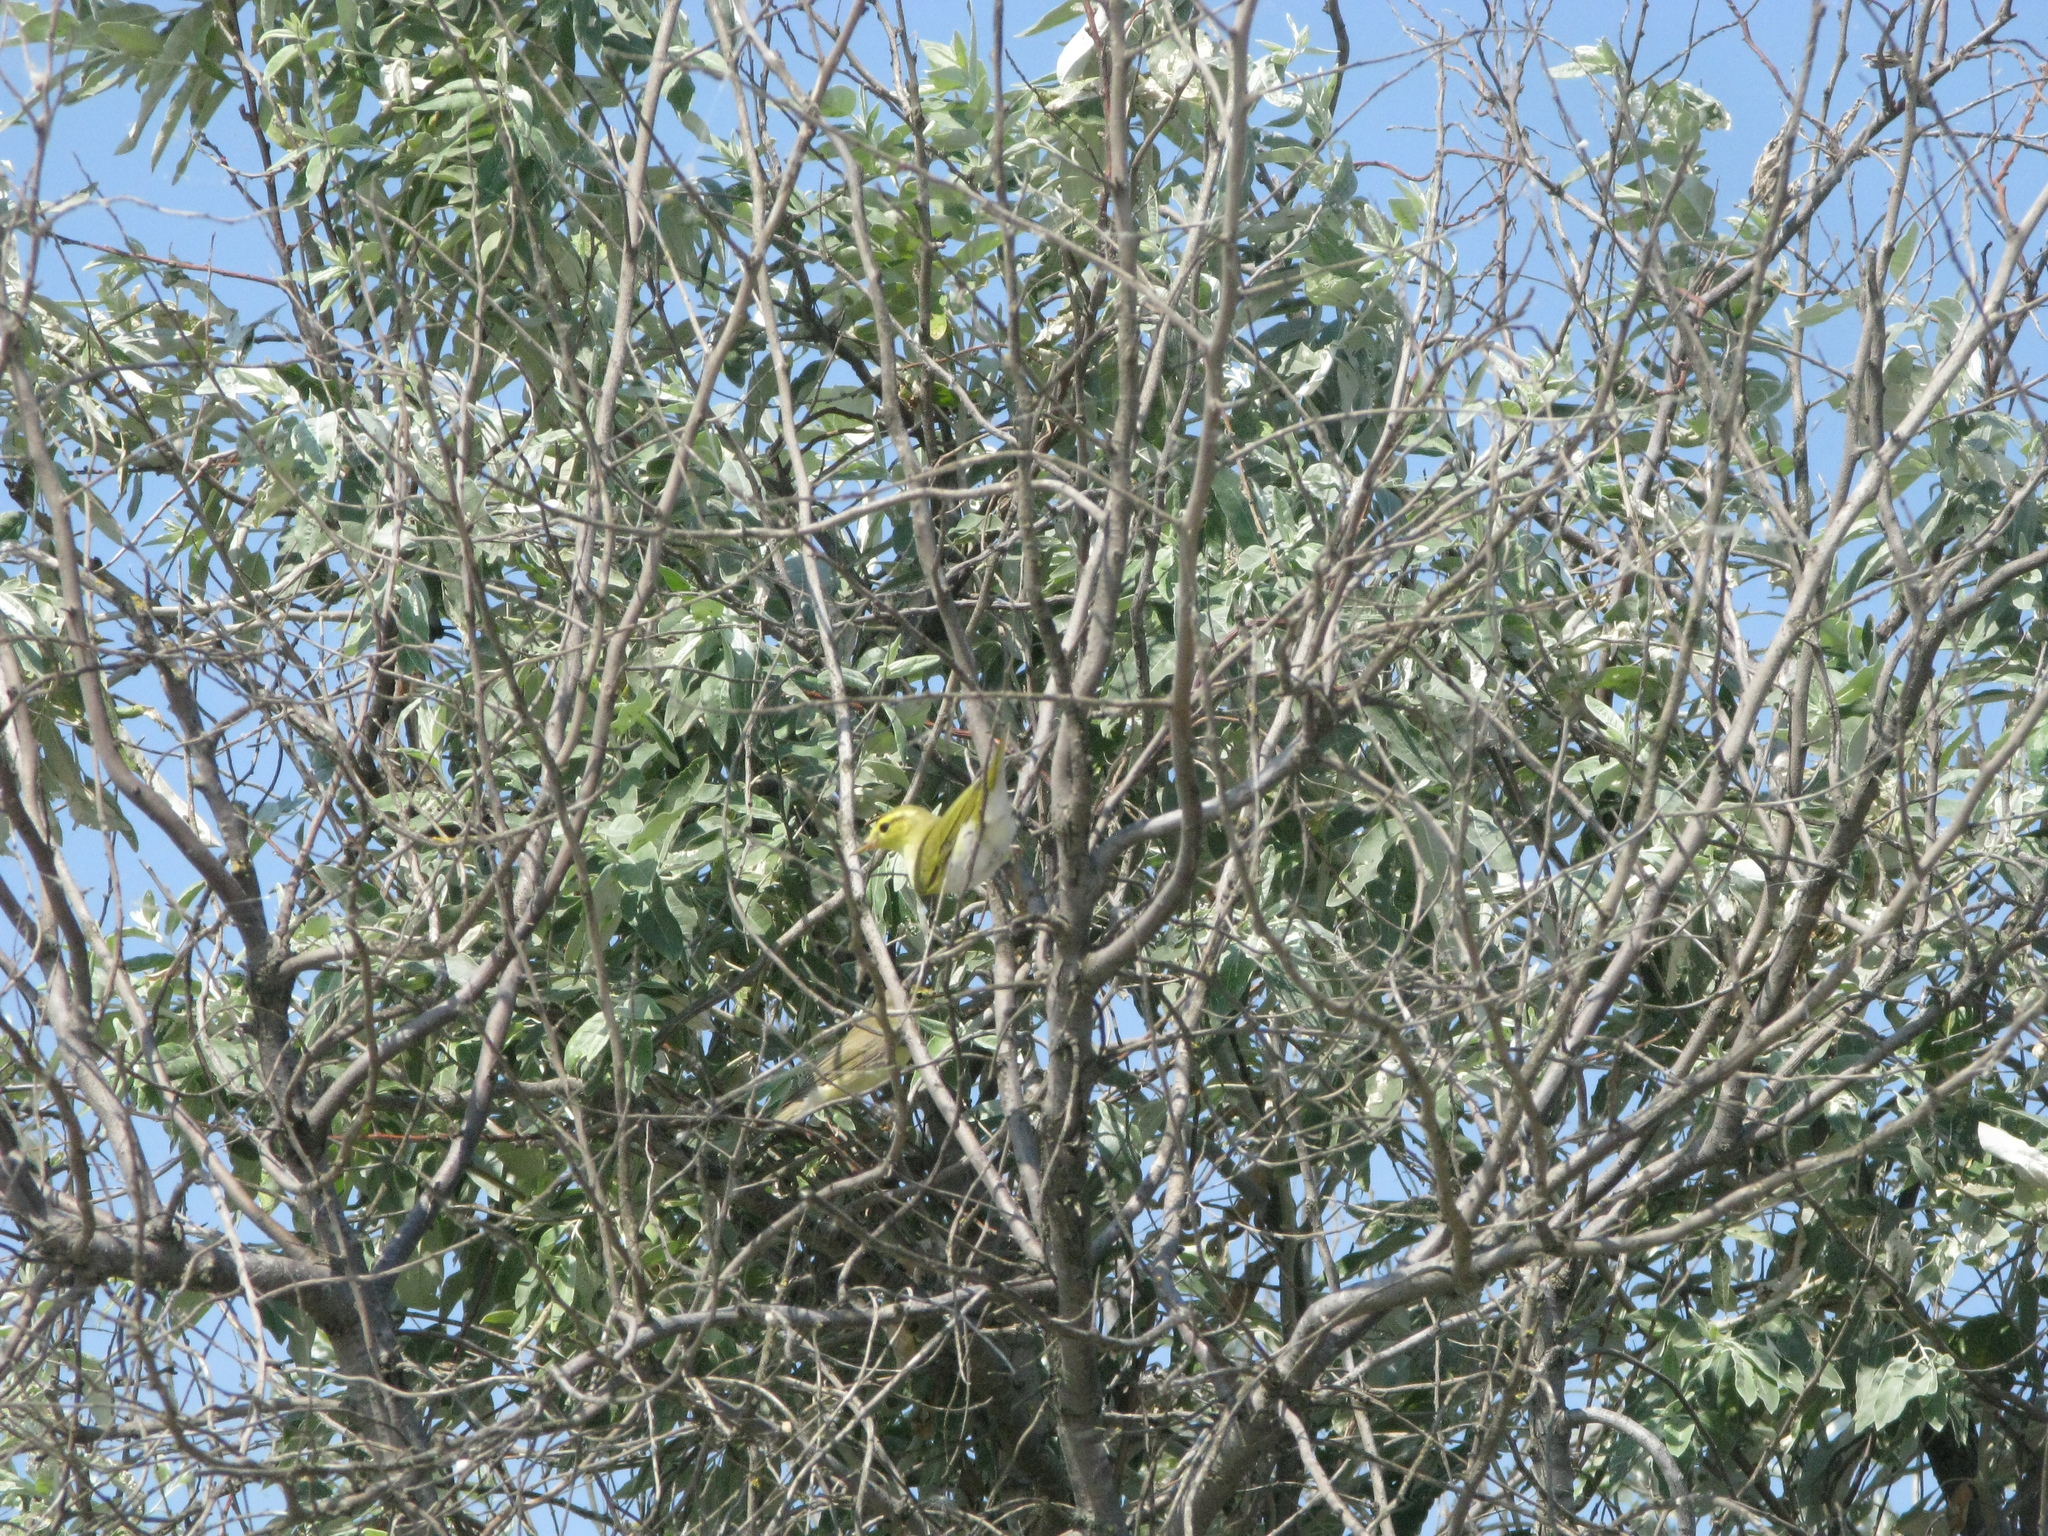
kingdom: Animalia
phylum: Chordata
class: Aves
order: Passeriformes
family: Phylloscopidae
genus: Phylloscopus
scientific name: Phylloscopus sibillatrix
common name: Wood warbler
